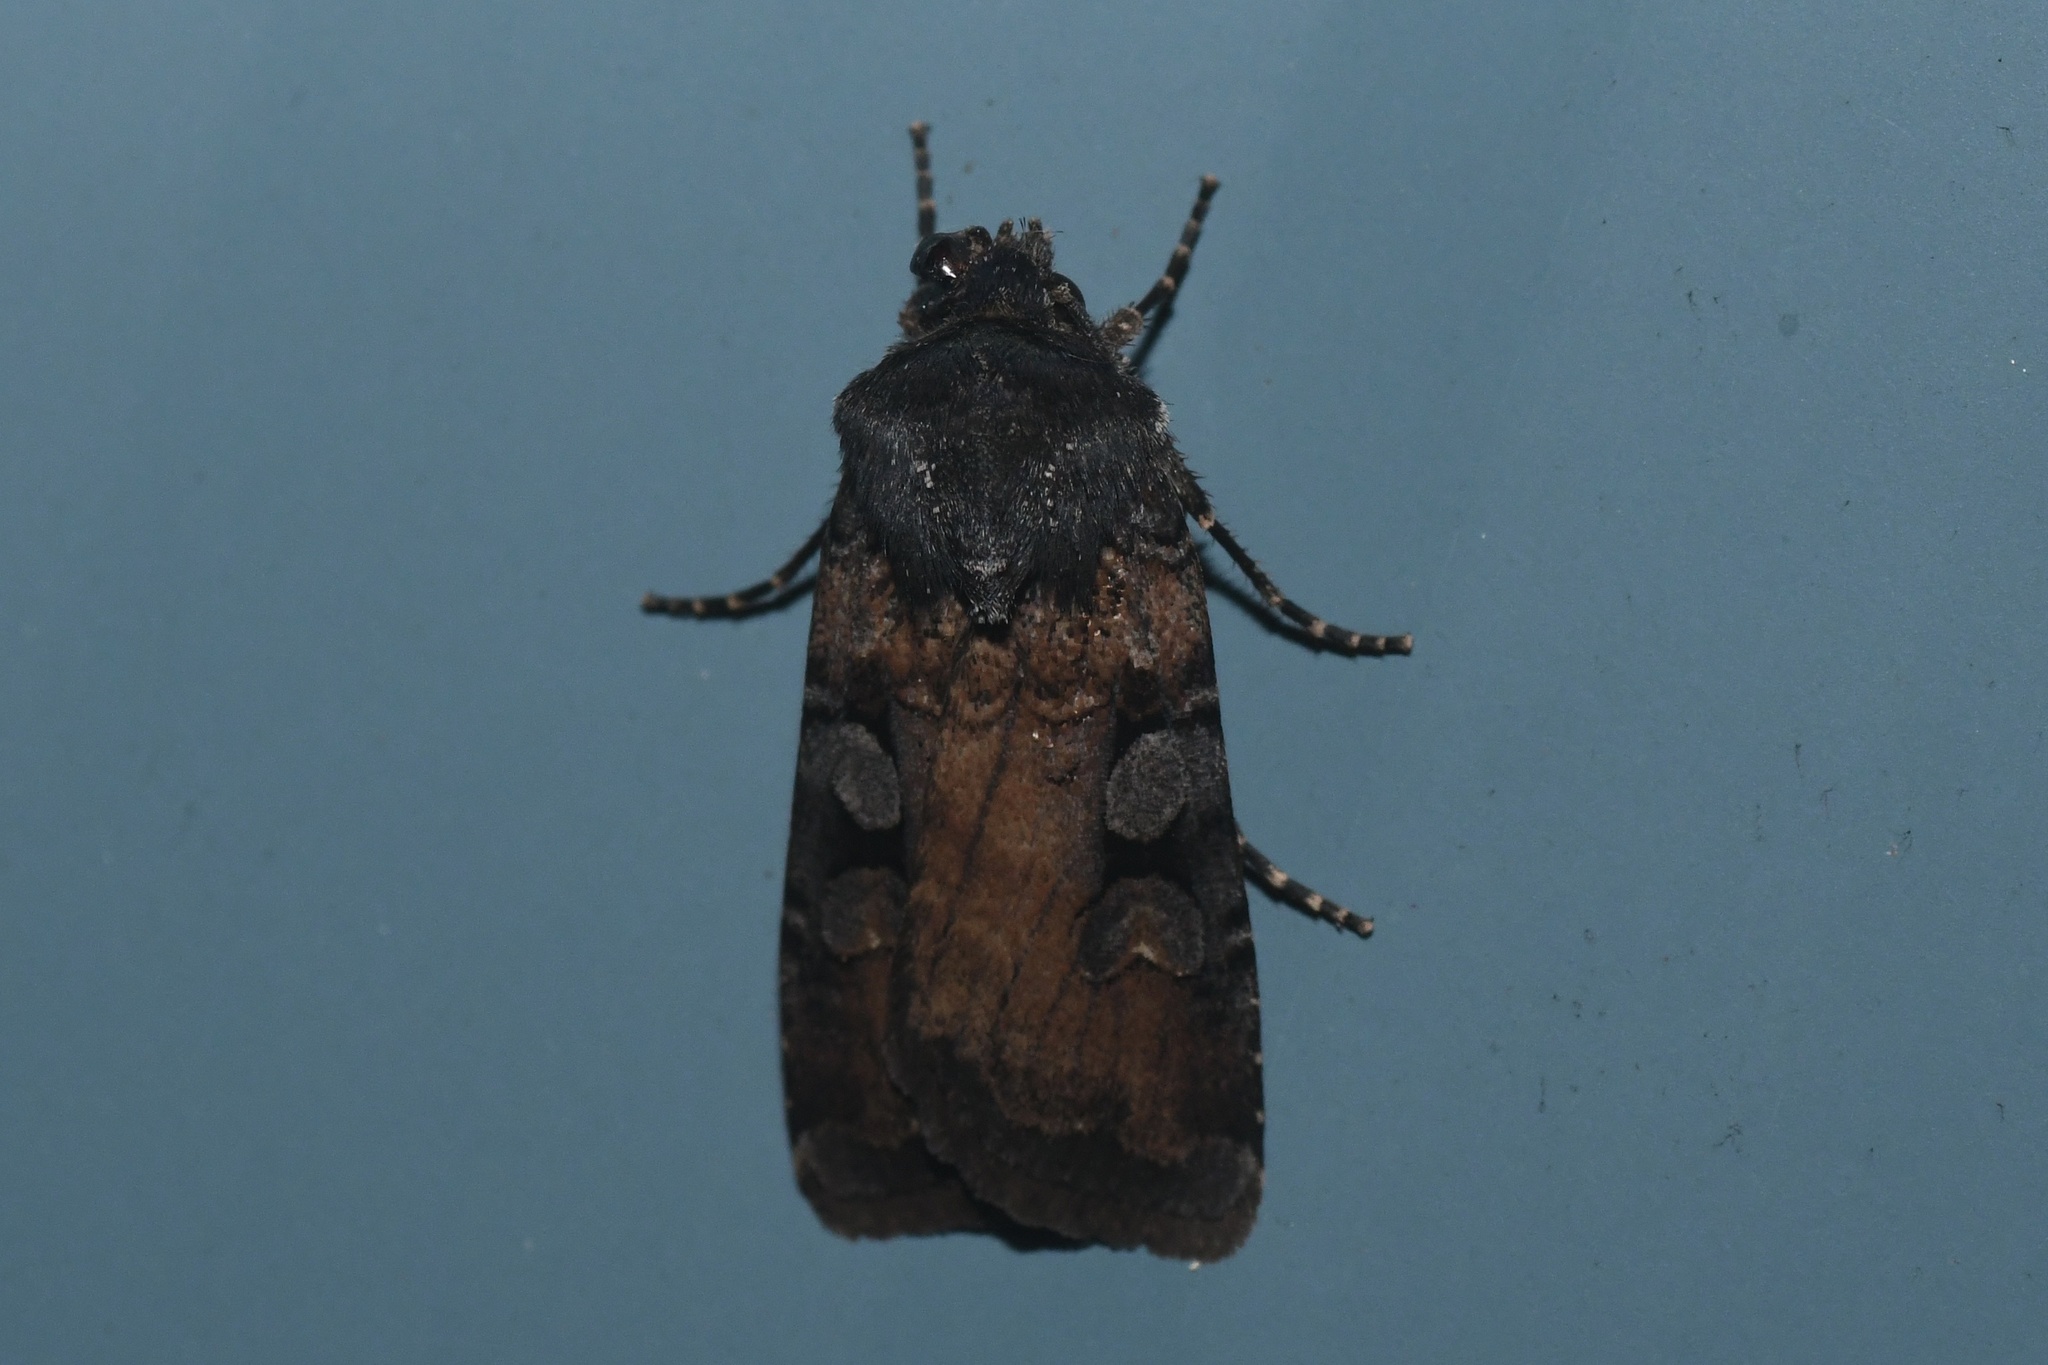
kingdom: Animalia
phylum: Arthropoda
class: Insecta
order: Lepidoptera
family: Noctuidae
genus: Euxoa
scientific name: Euxoa tessellata
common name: Striped cutworm
